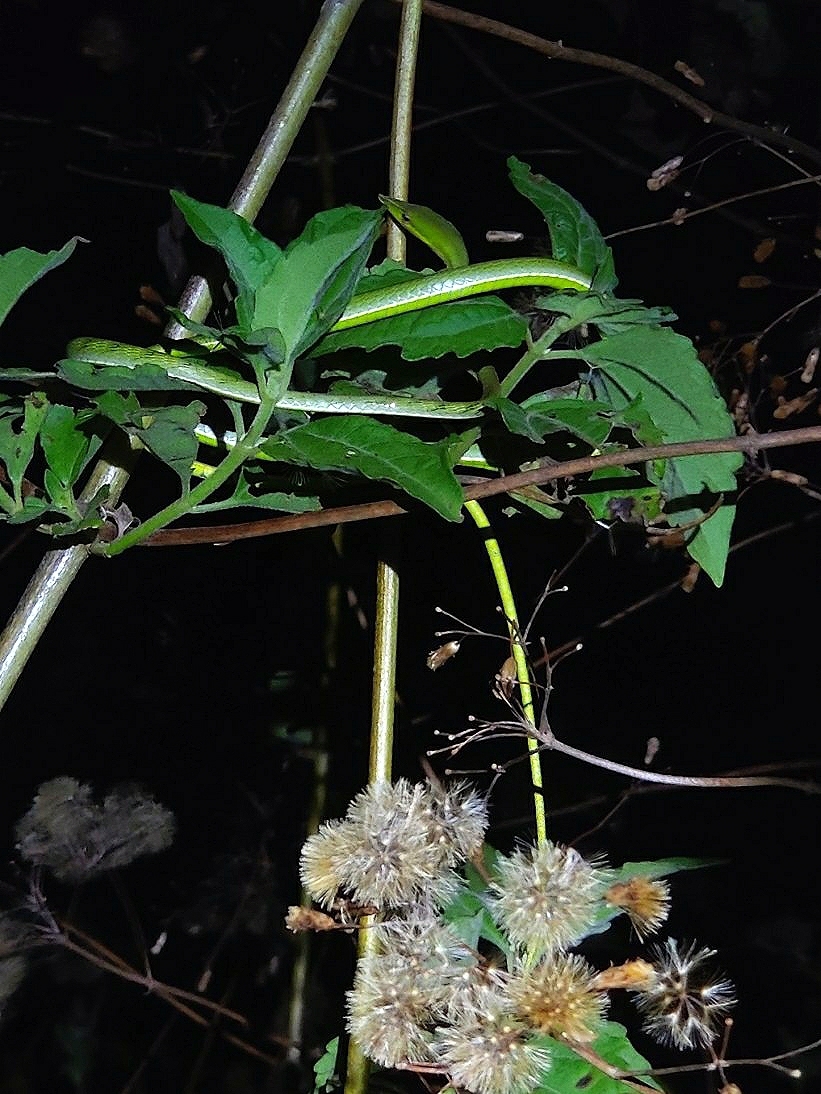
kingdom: Animalia
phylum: Chordata
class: Squamata
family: Colubridae
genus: Ahaetulla
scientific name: Ahaetulla oxyrhyncha
